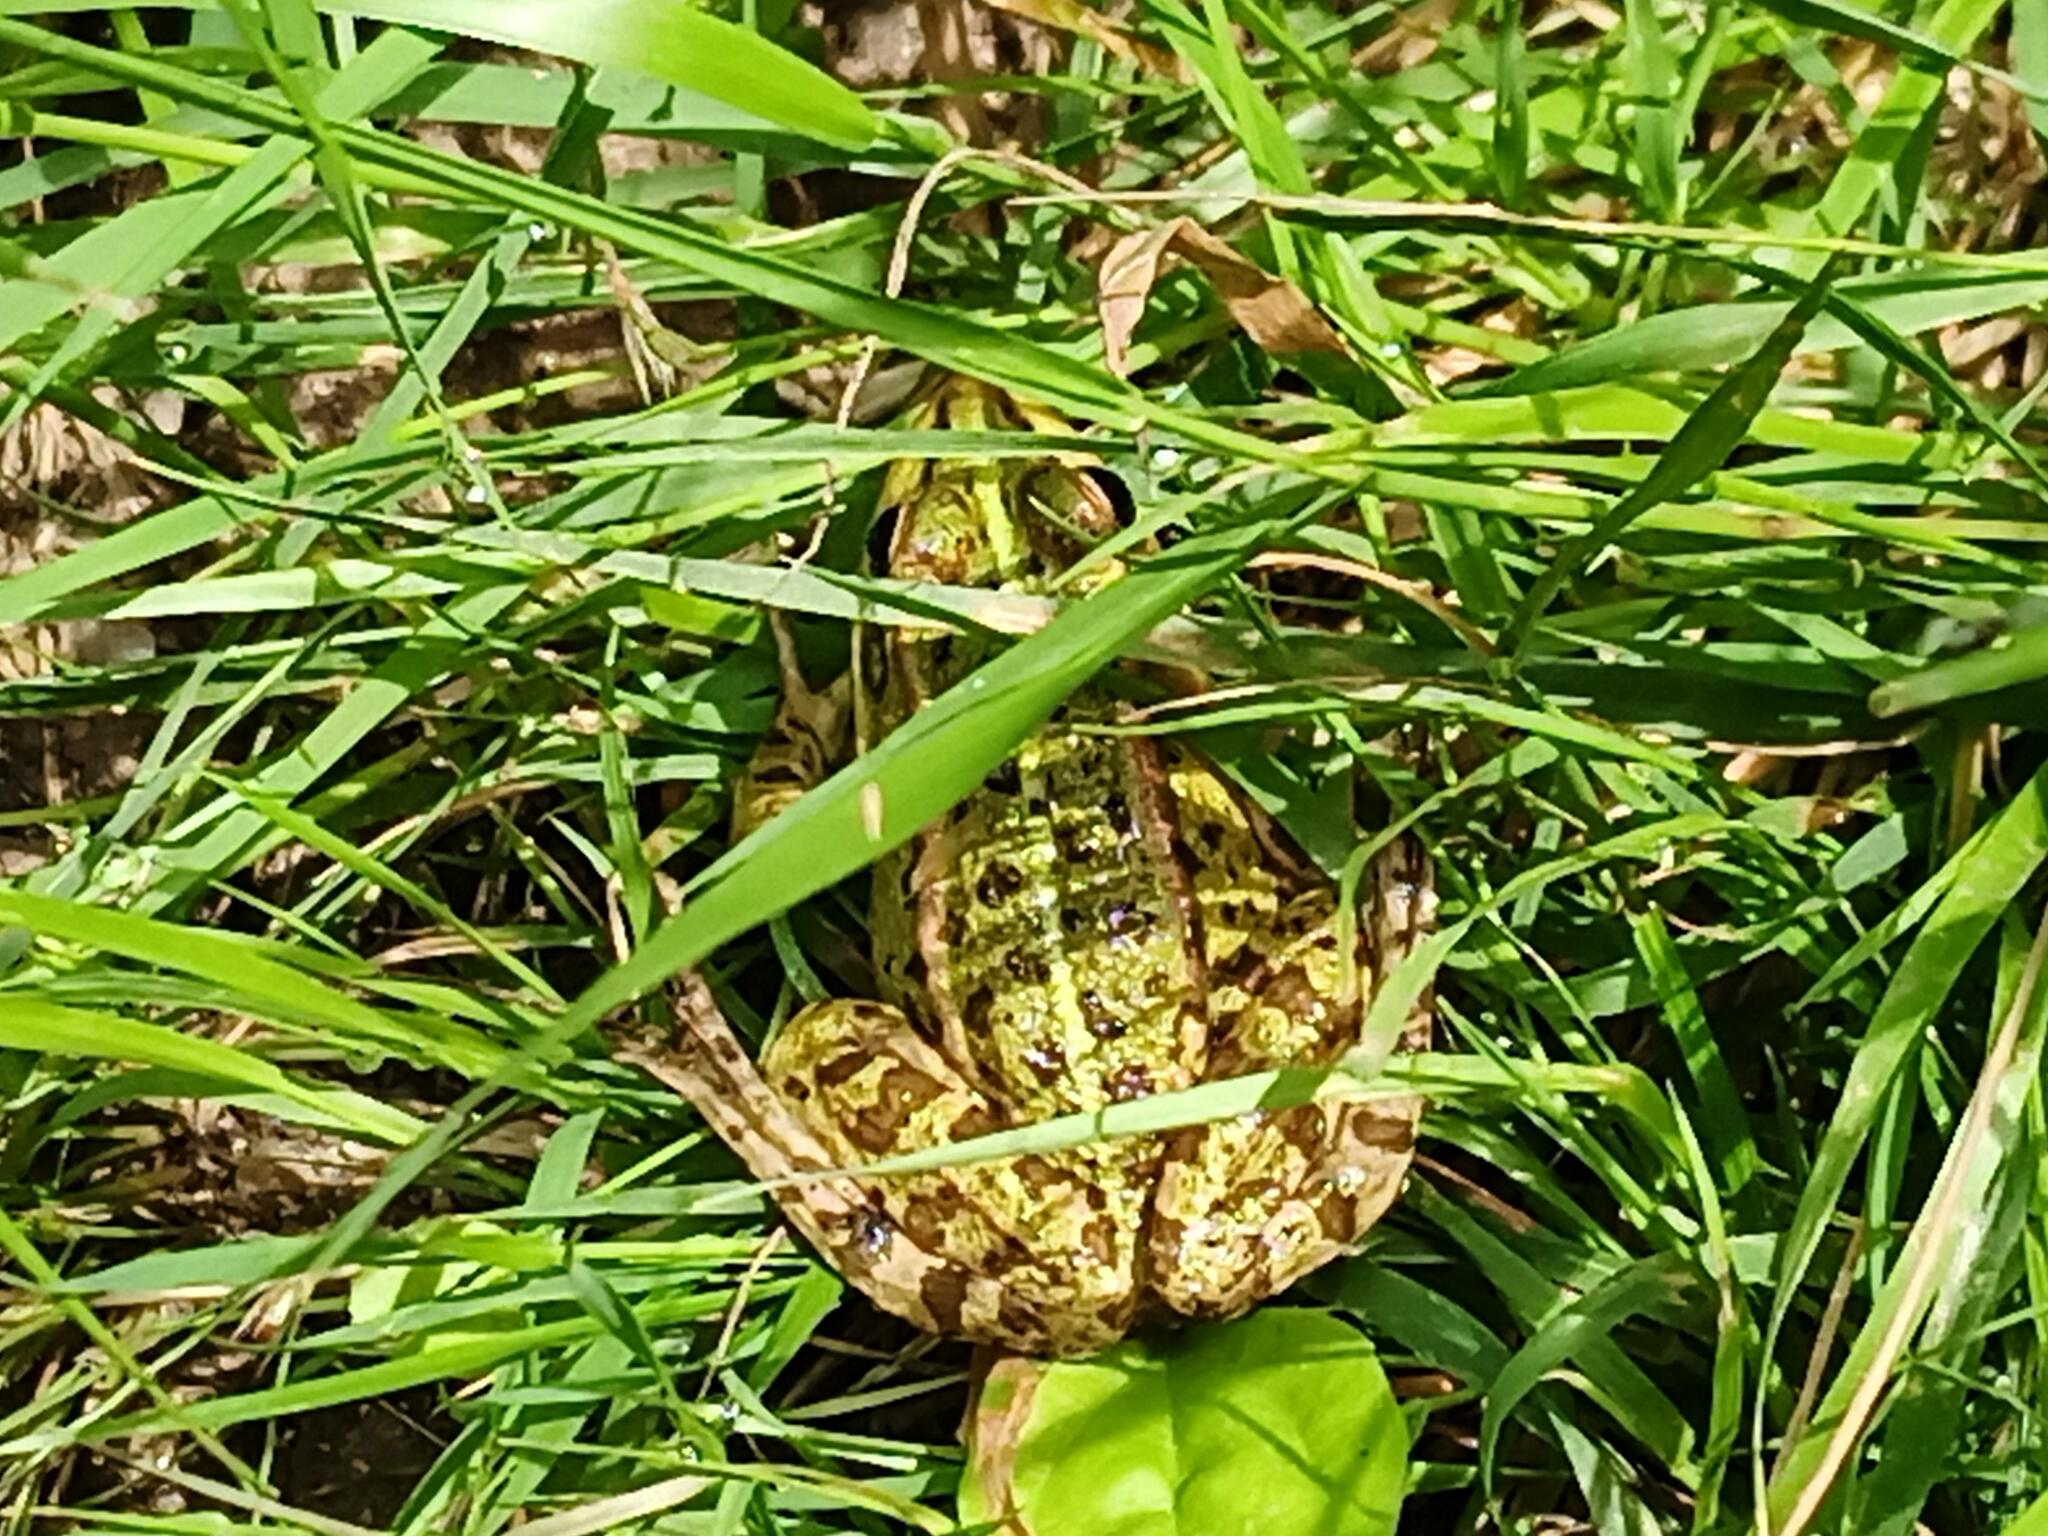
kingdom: Animalia
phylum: Chordata
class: Amphibia
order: Anura
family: Ranidae
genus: Pelophylax
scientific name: Pelophylax perezi
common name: Perez's frog
